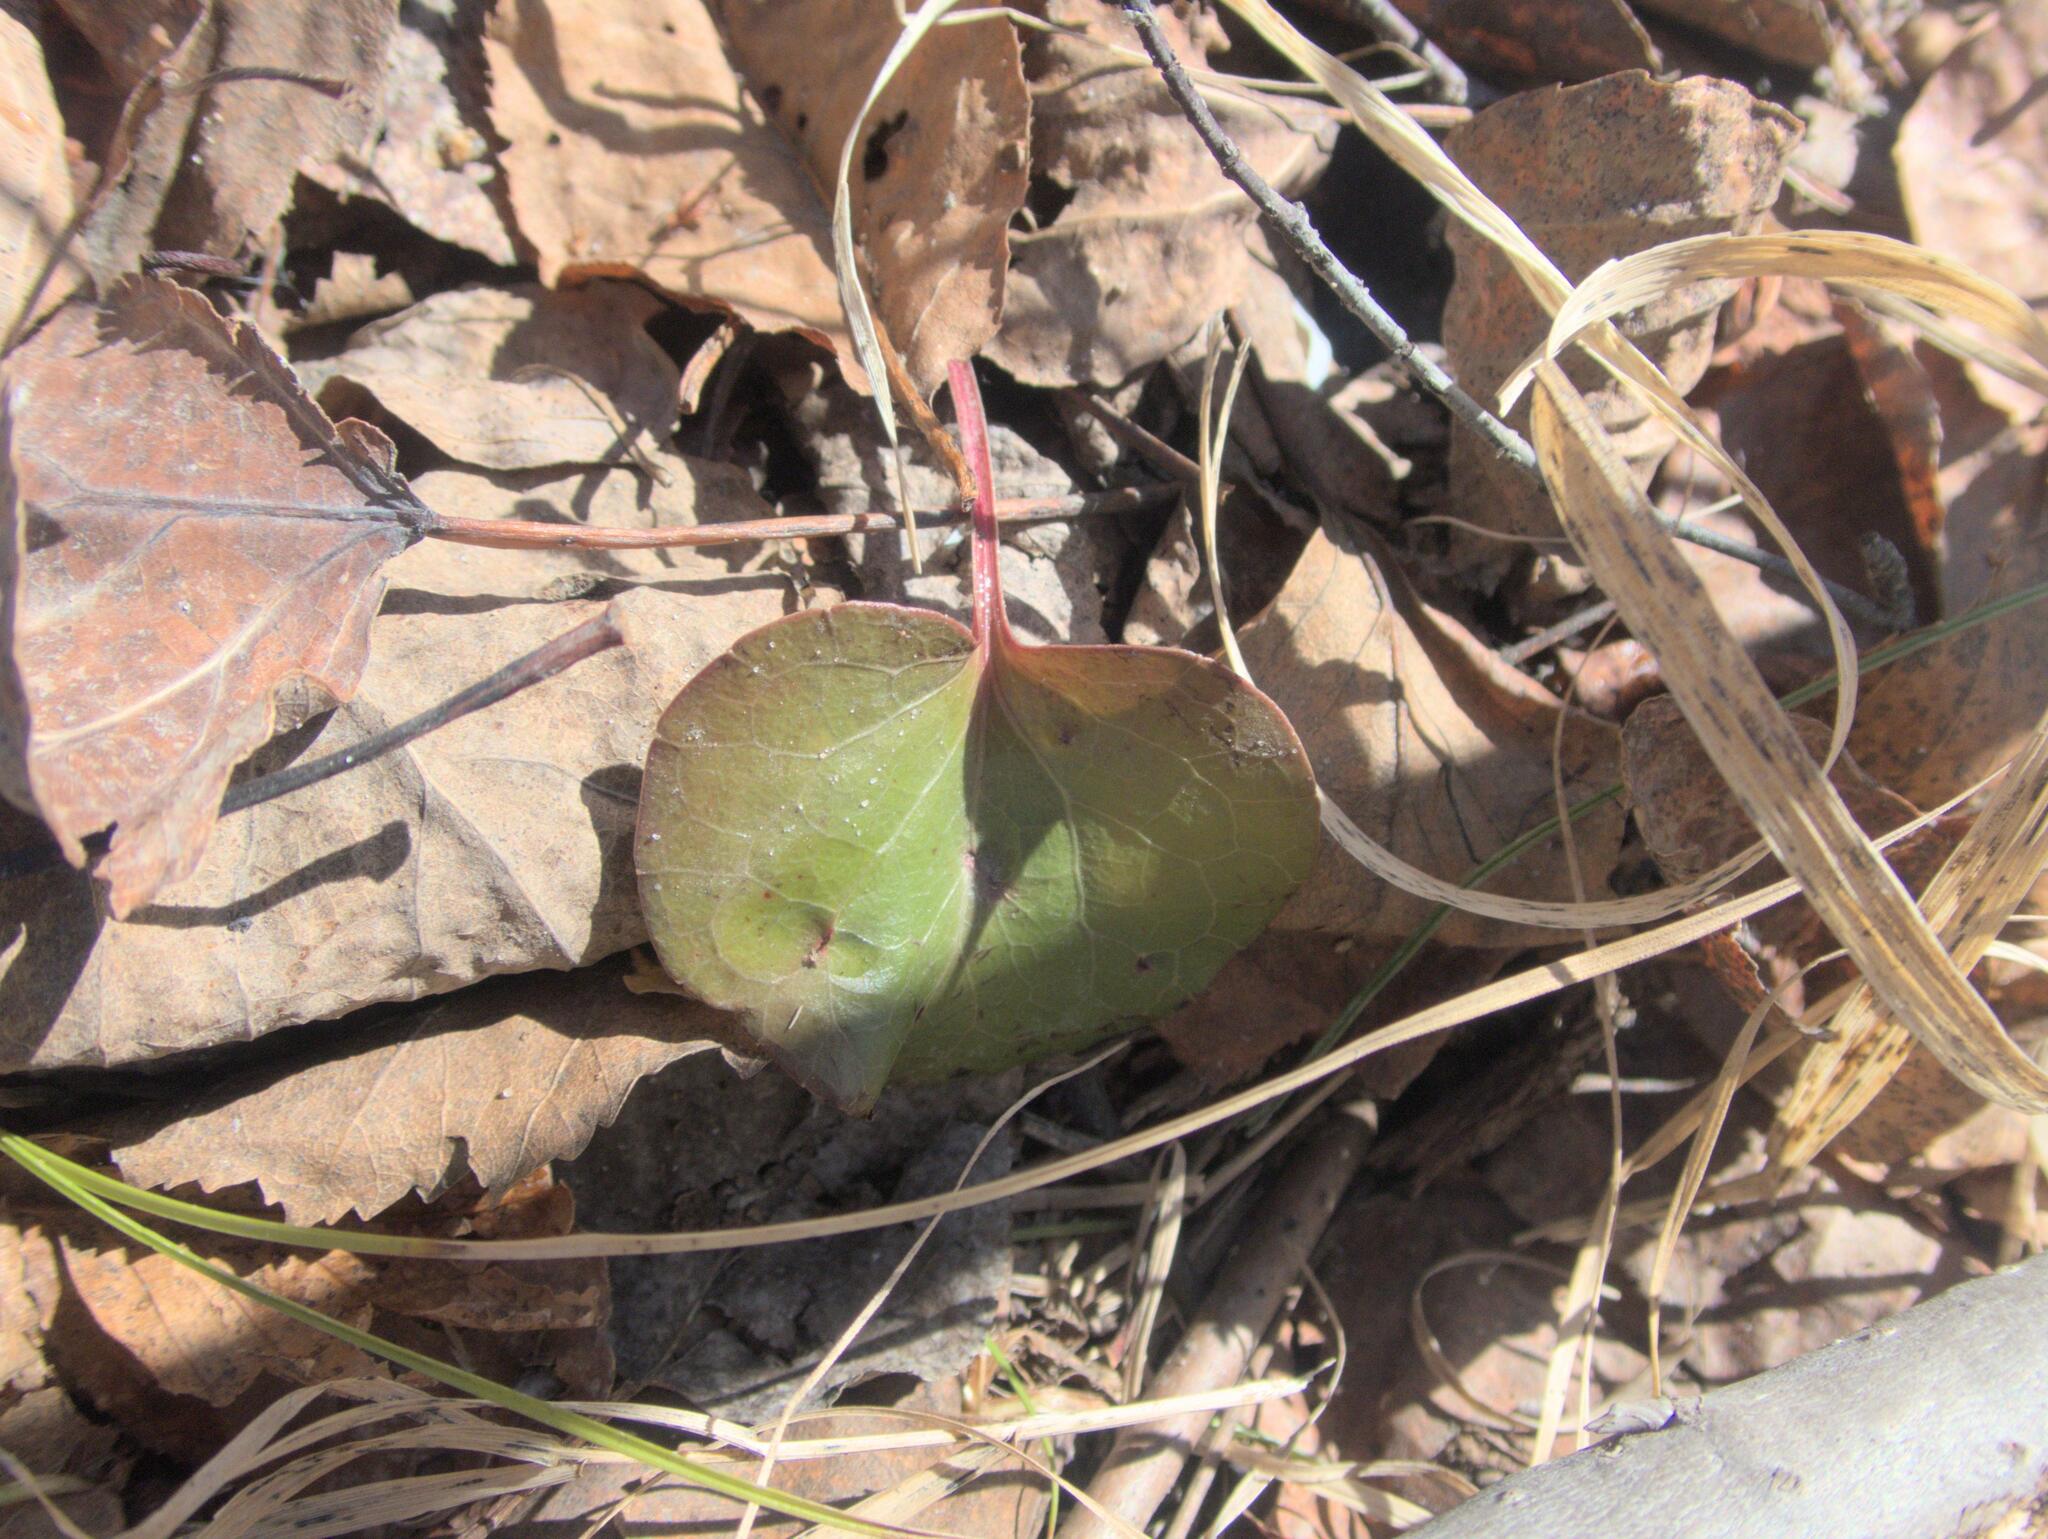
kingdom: Plantae
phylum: Tracheophyta
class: Magnoliopsida
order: Ericales
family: Ericaceae
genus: Pyrola
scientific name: Pyrola asarifolia
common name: Bog wintergreen
